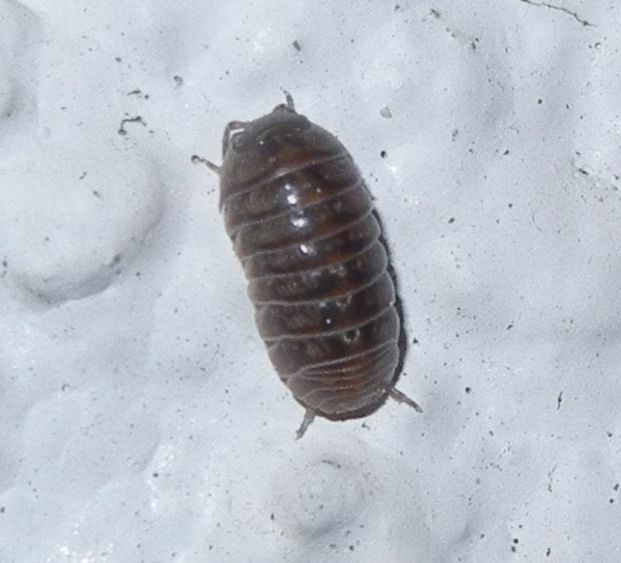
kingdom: Animalia
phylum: Arthropoda
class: Malacostraca
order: Isopoda
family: Armadillidiidae
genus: Armadillidium
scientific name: Armadillidium vulgare
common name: Common pill woodlouse
